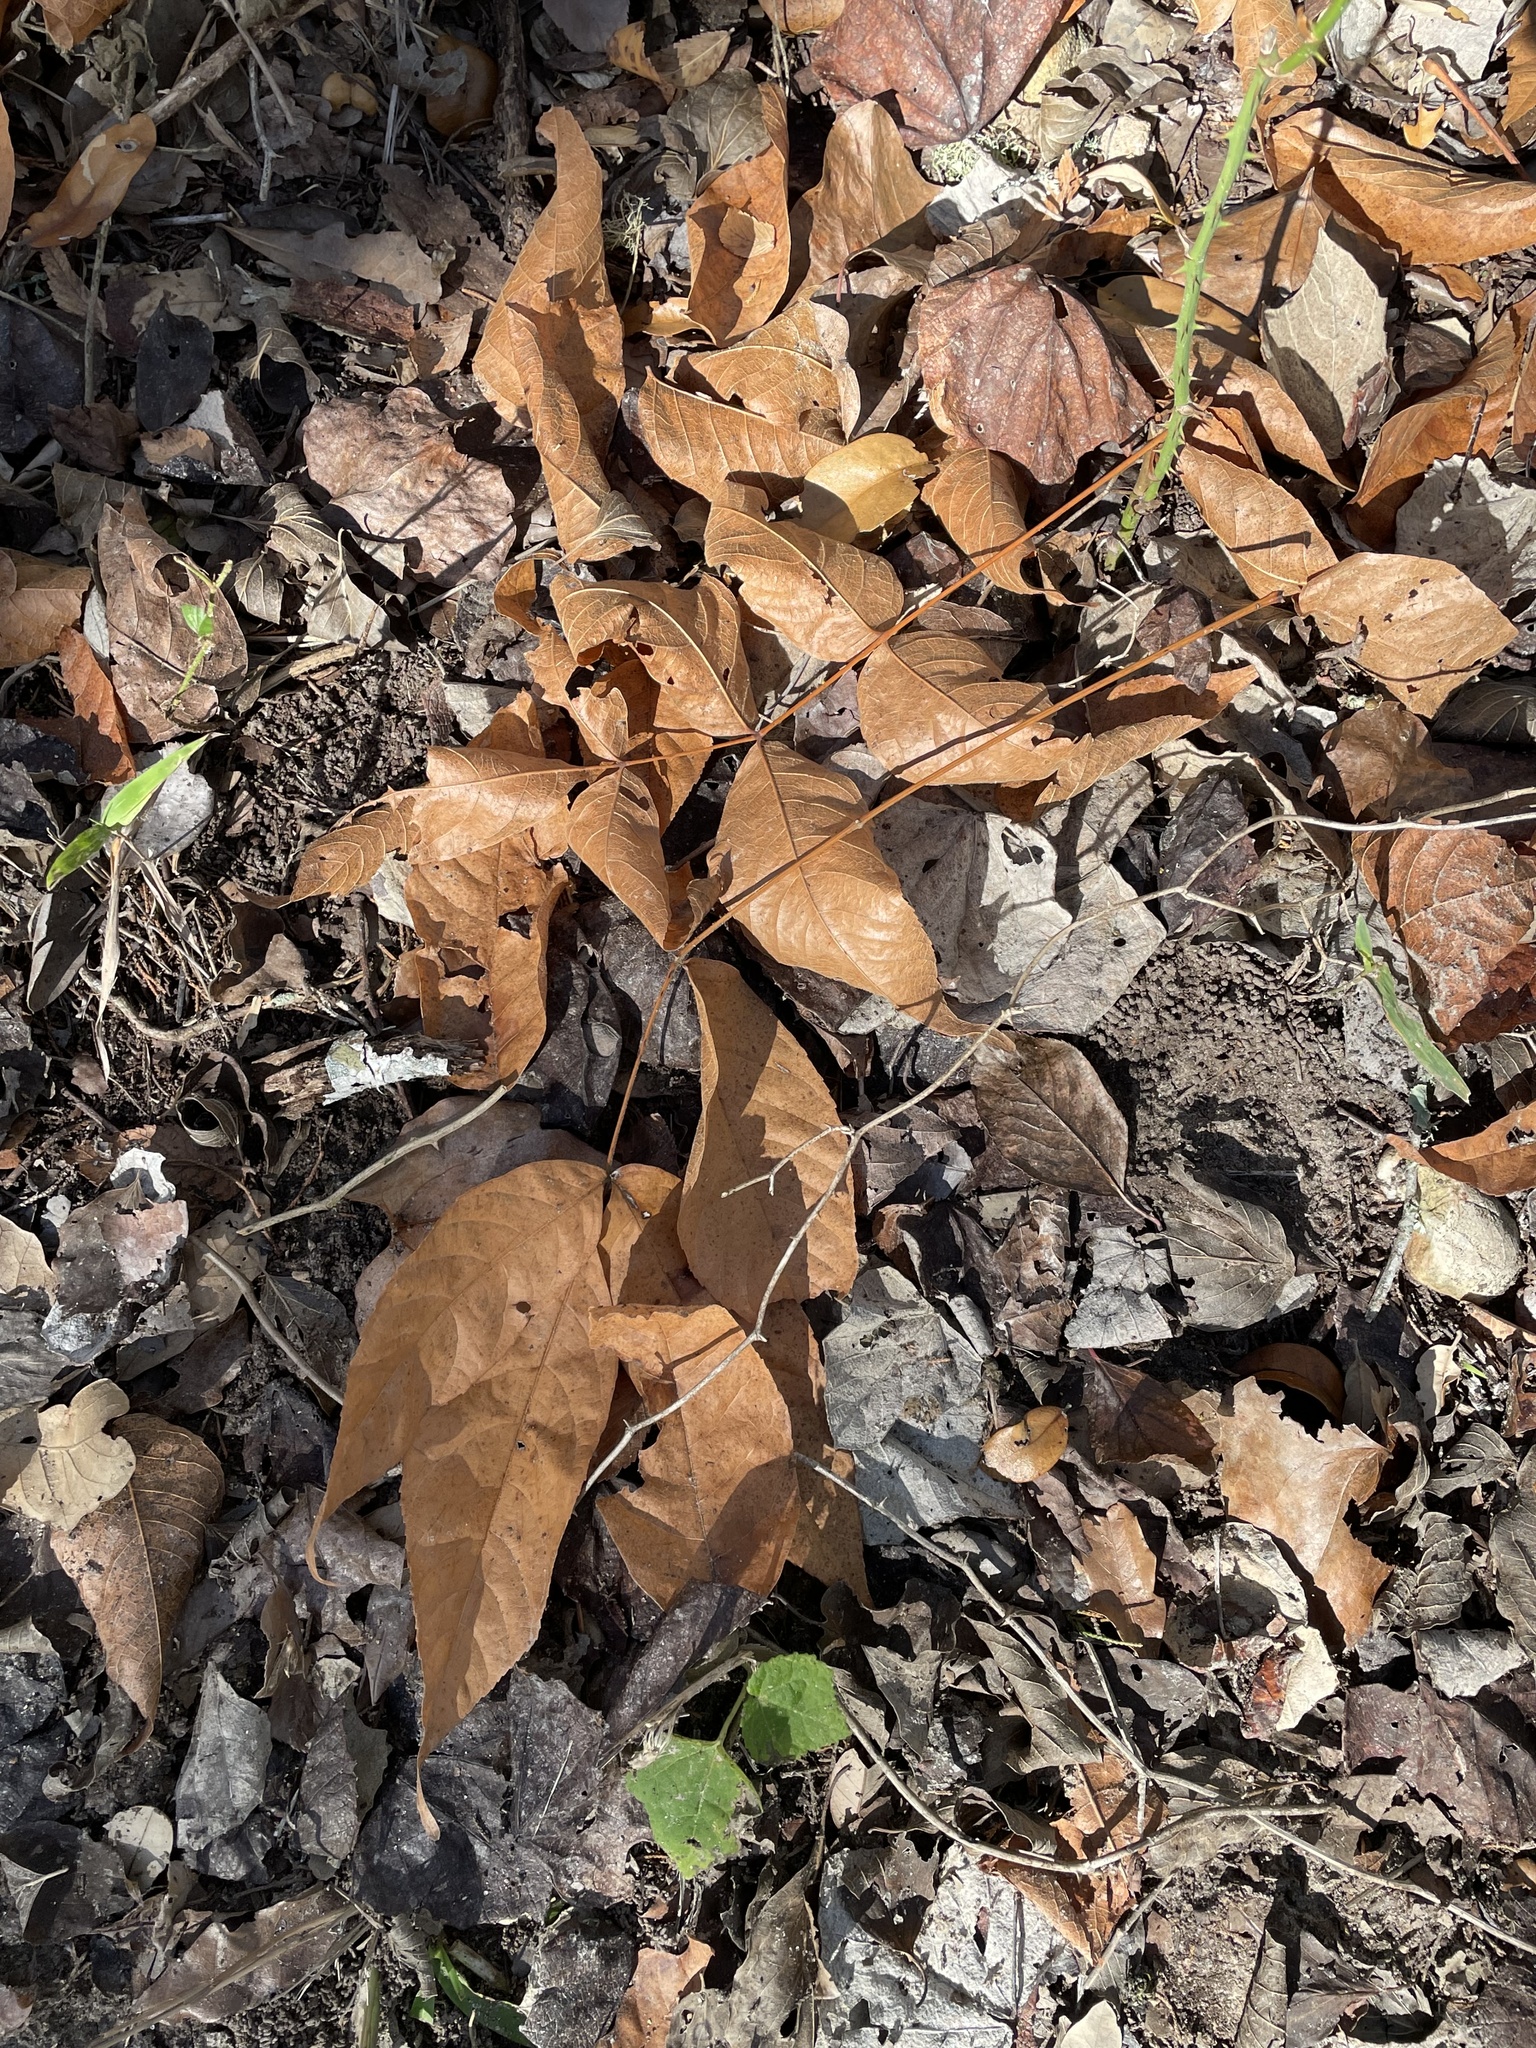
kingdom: Plantae
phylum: Tracheophyta
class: Magnoliopsida
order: Sapindales
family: Sapindaceae
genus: Ungnadia
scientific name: Ungnadia speciosa
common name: Texas-buckeye
